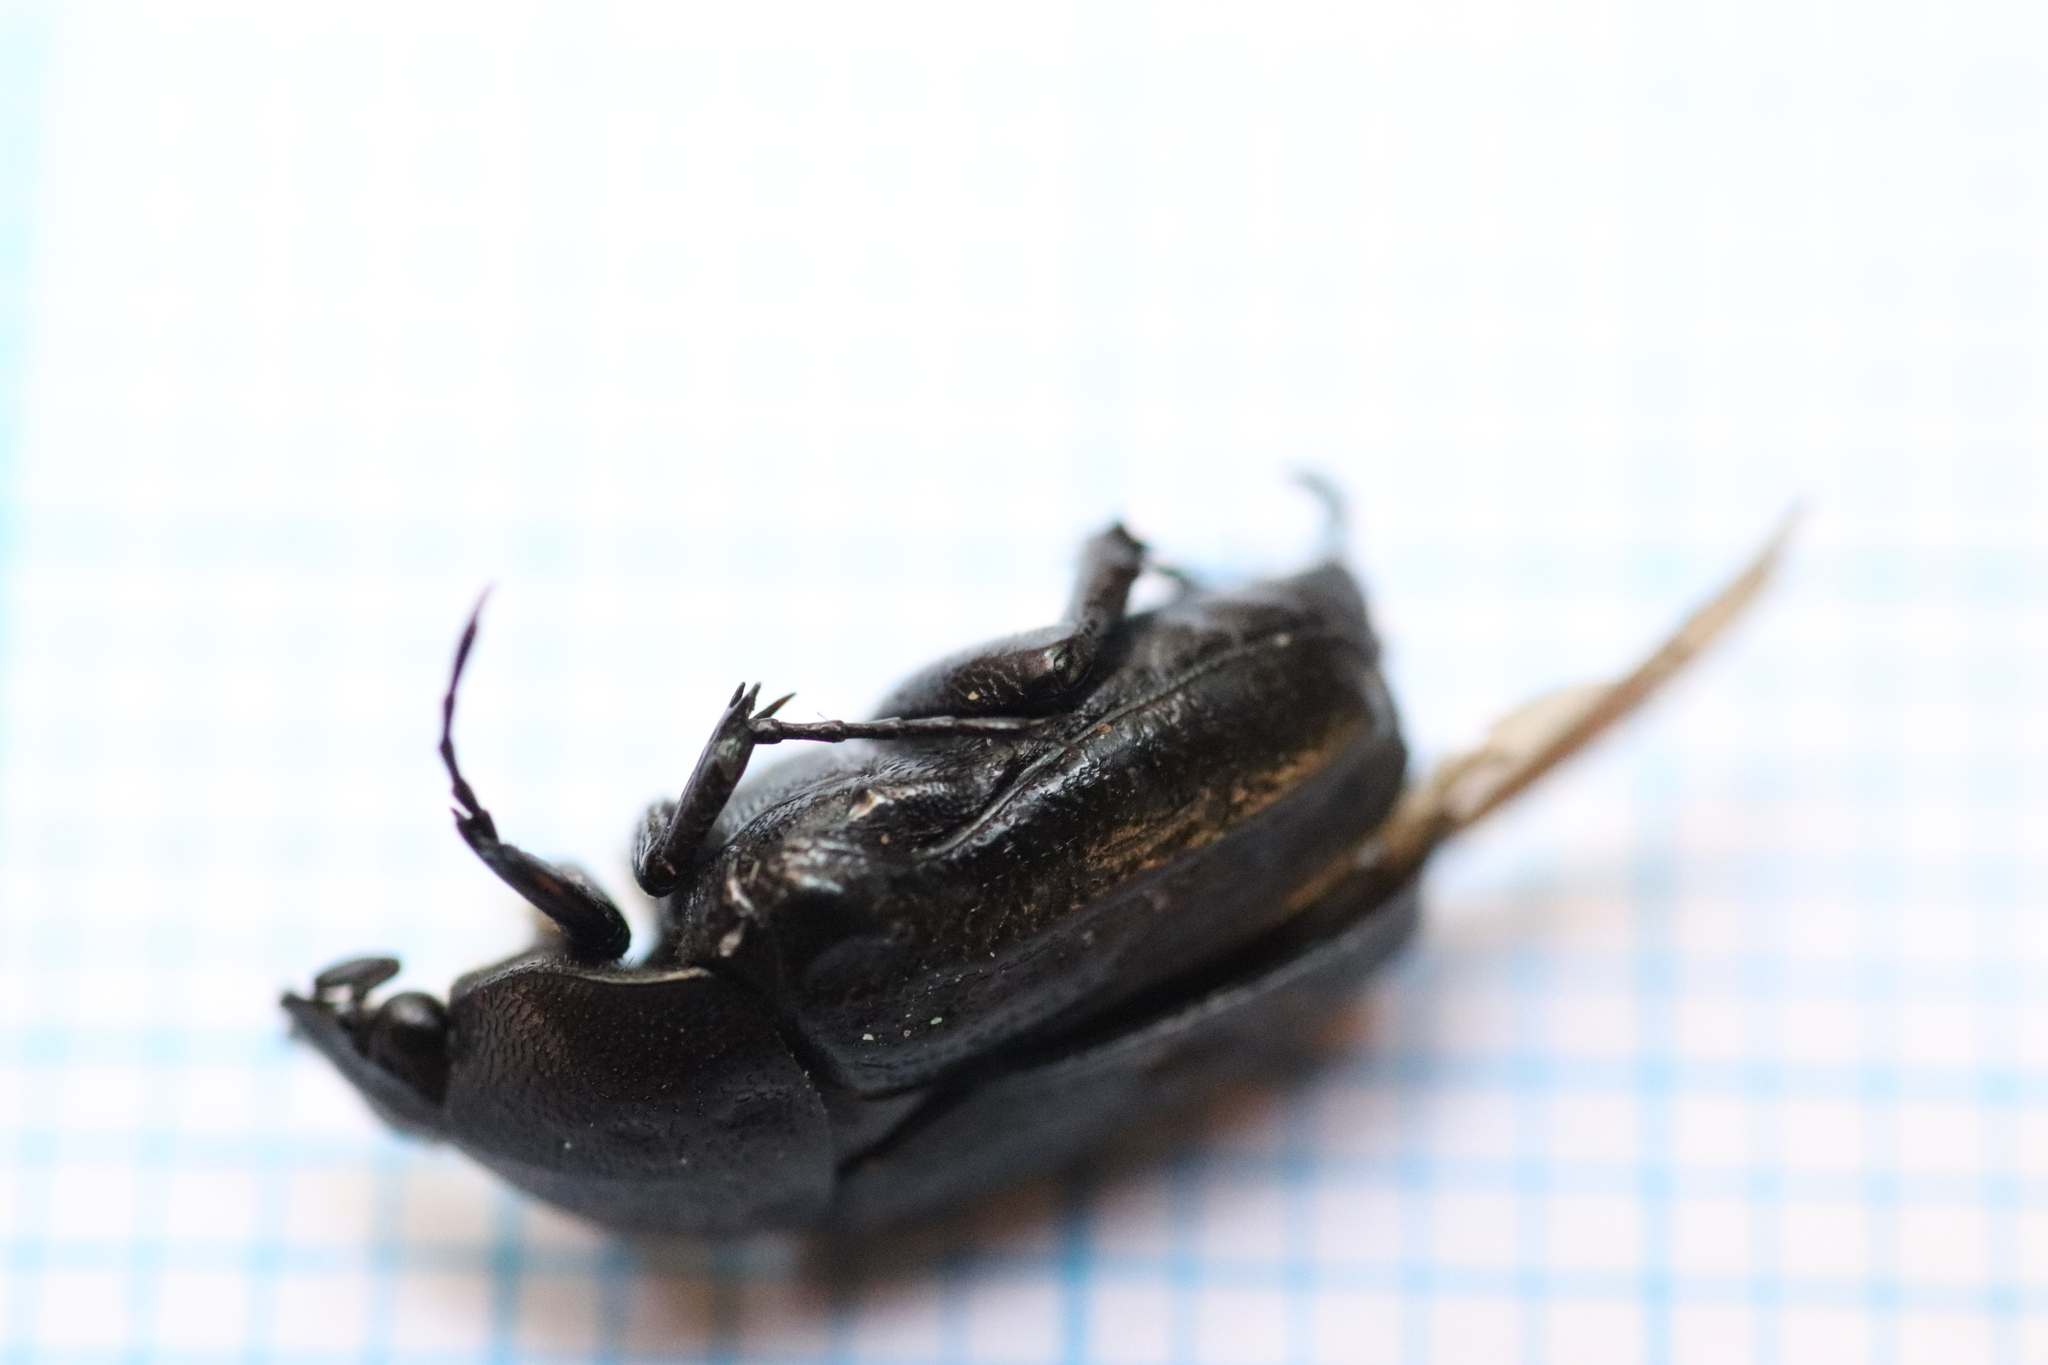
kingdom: Animalia
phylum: Arthropoda
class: Insecta
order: Coleoptera
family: Scarabaeidae
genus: Oxythyrea
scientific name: Oxythyrea funesta
